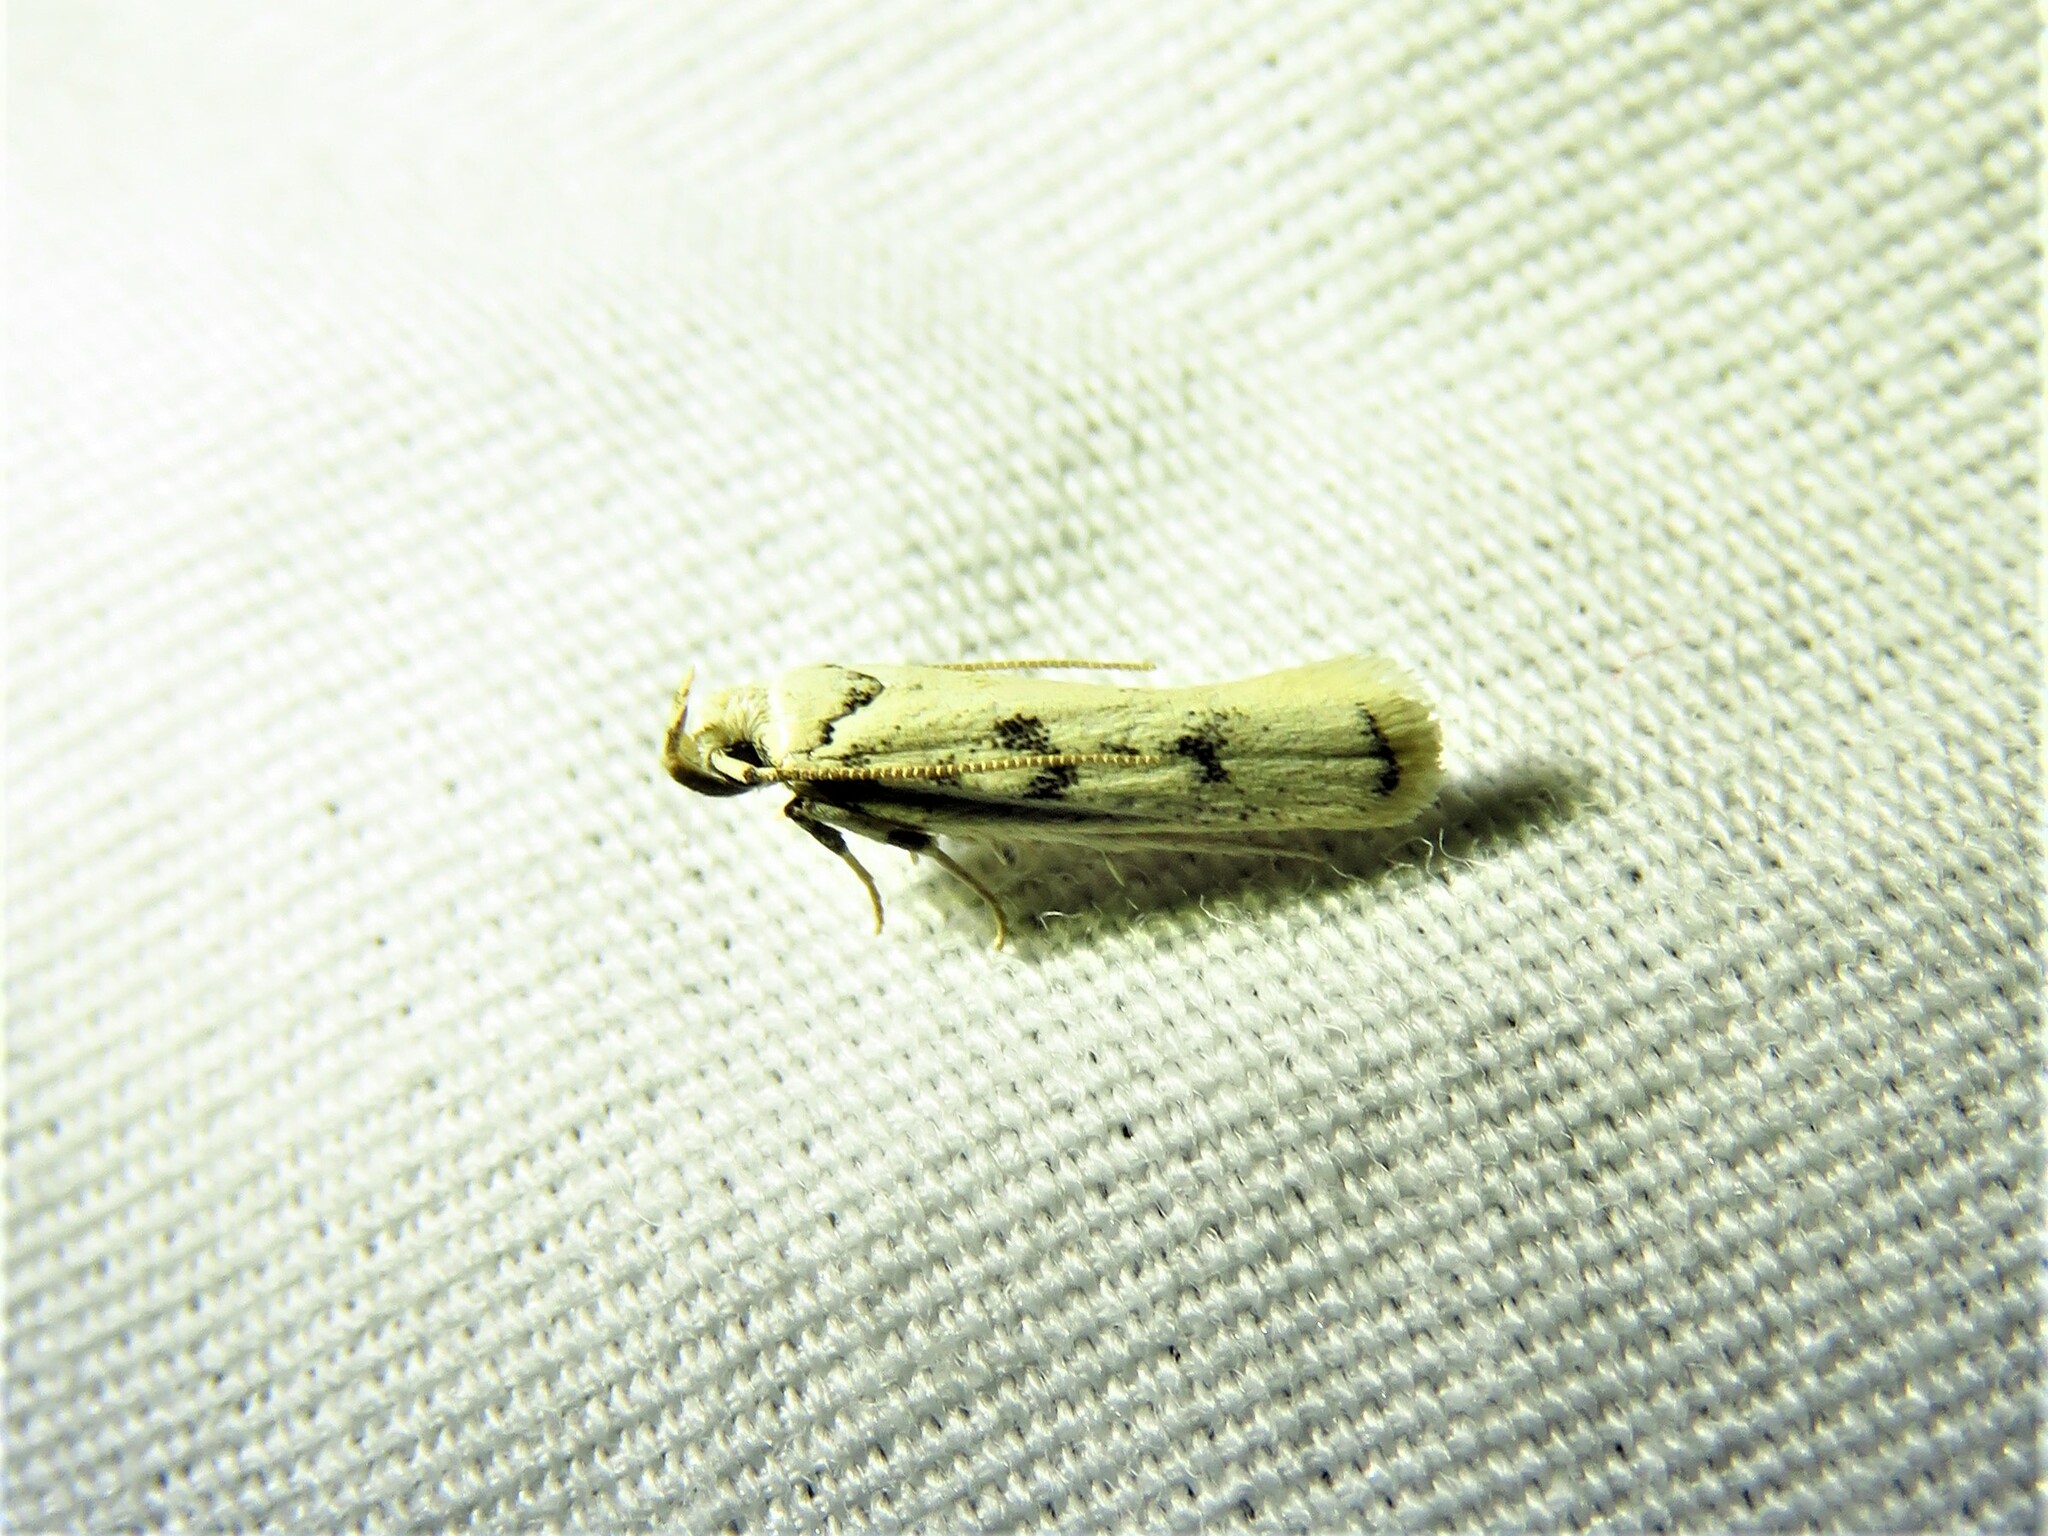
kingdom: Animalia
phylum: Arthropoda
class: Insecta
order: Lepidoptera
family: Autostichidae
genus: Glyphidocera
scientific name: Glyphidocera lactiflosella
